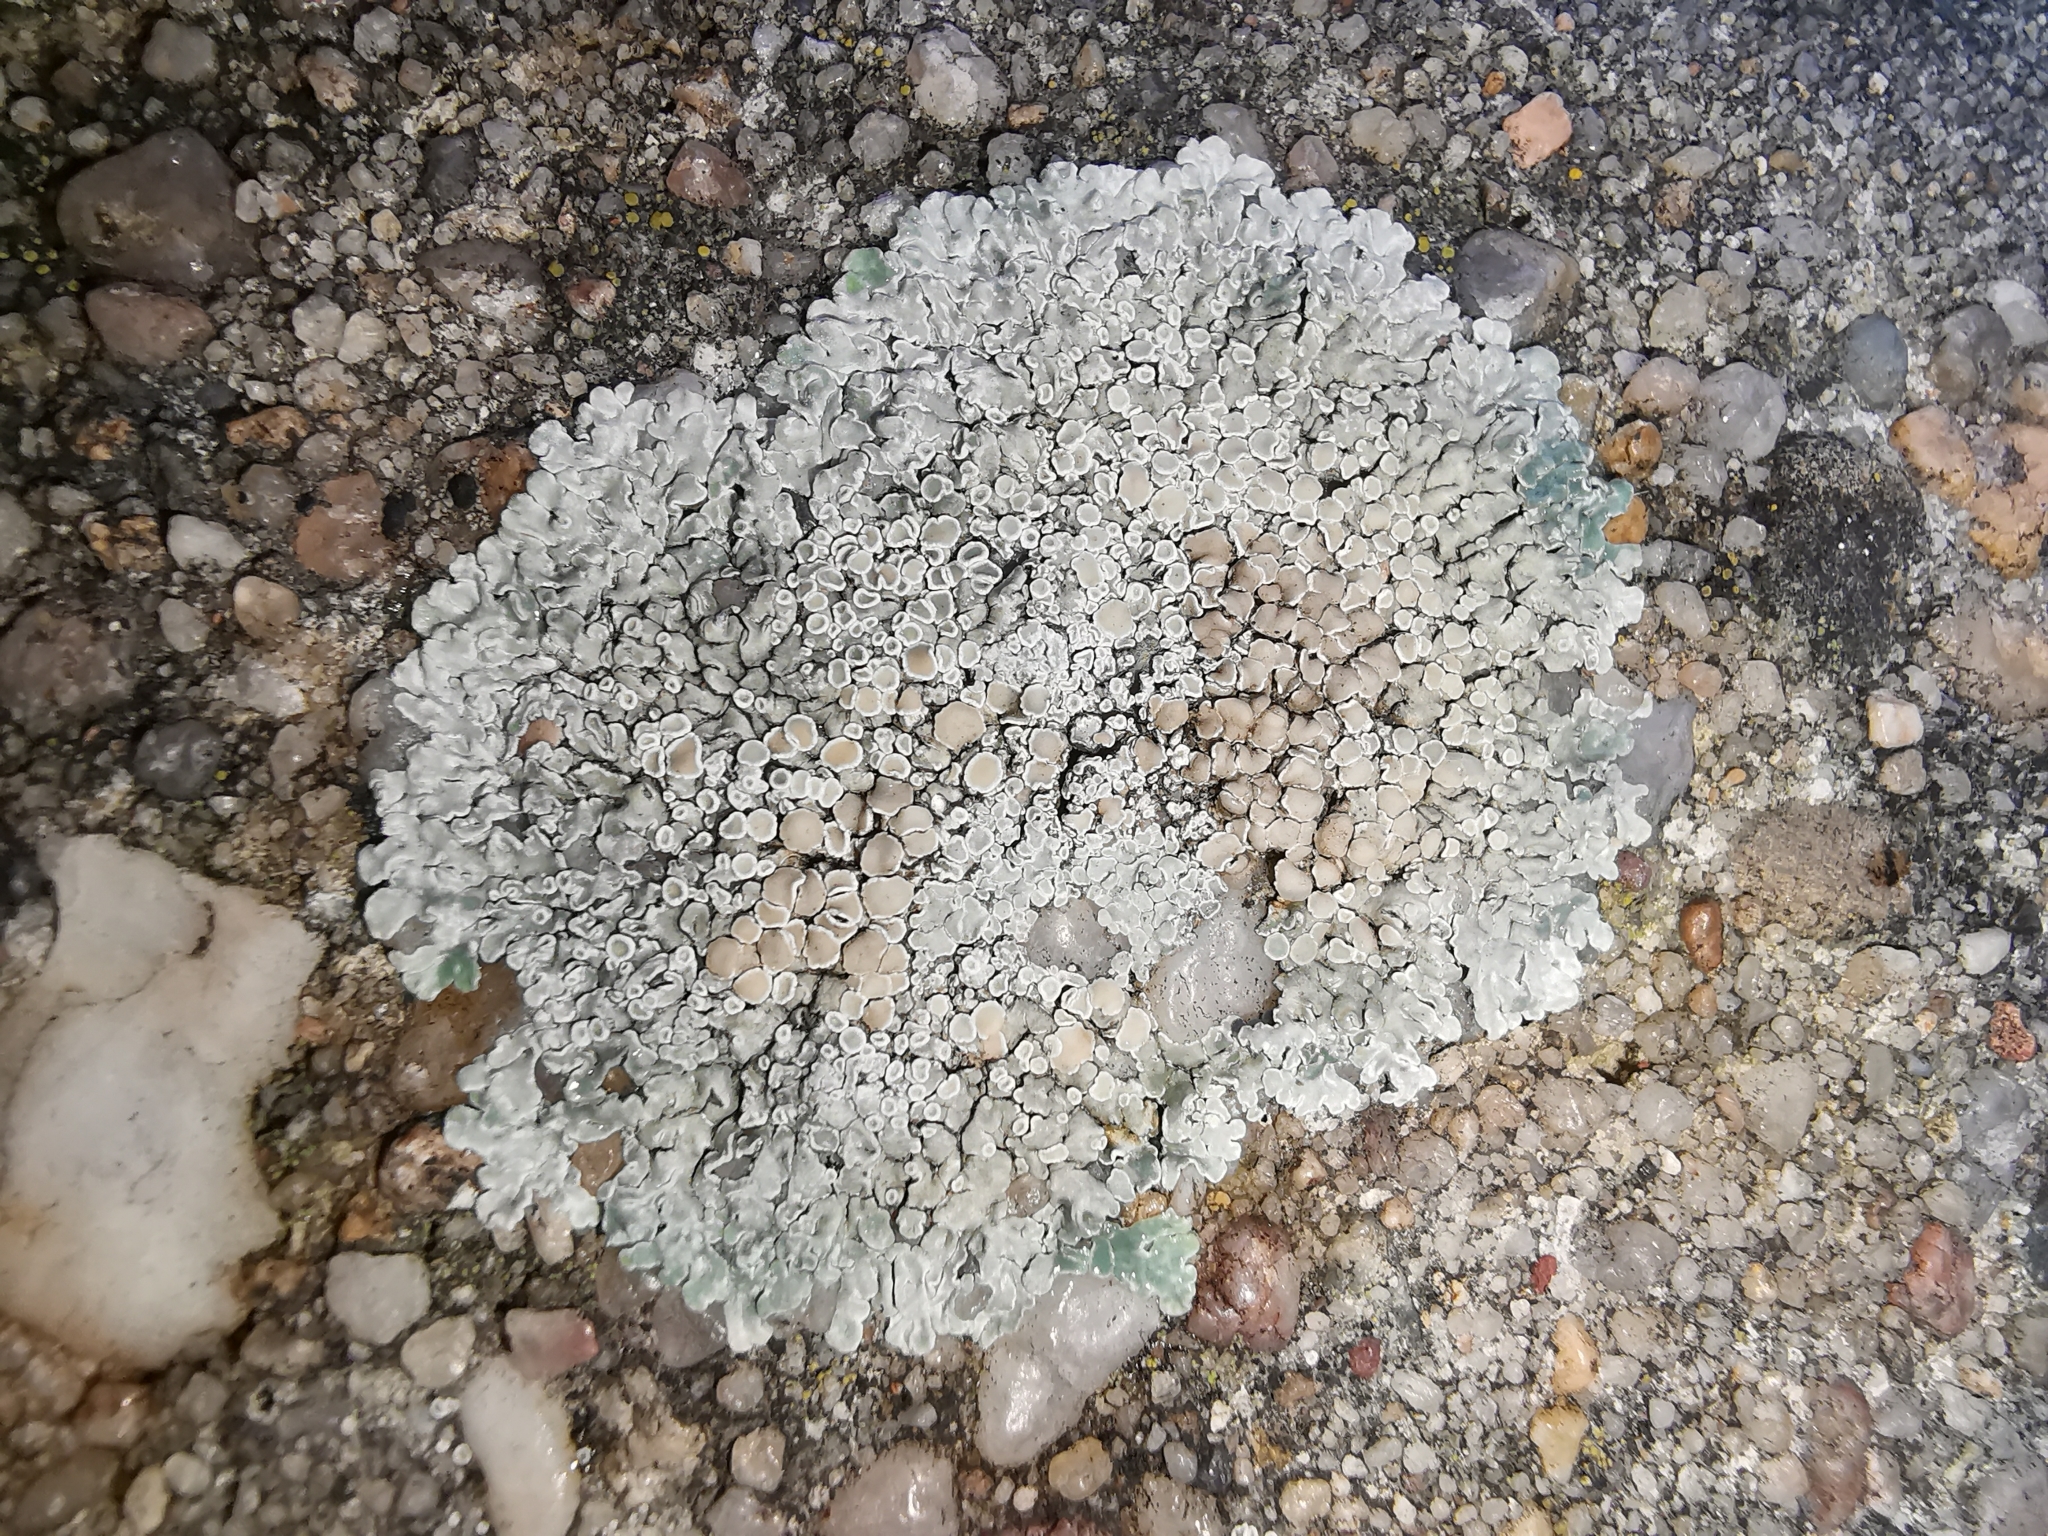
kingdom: Fungi
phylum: Ascomycota
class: Lecanoromycetes
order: Lecanorales
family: Lecanoraceae
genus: Protoparmeliopsis
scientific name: Protoparmeliopsis muralis
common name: Stonewall rim lichen
